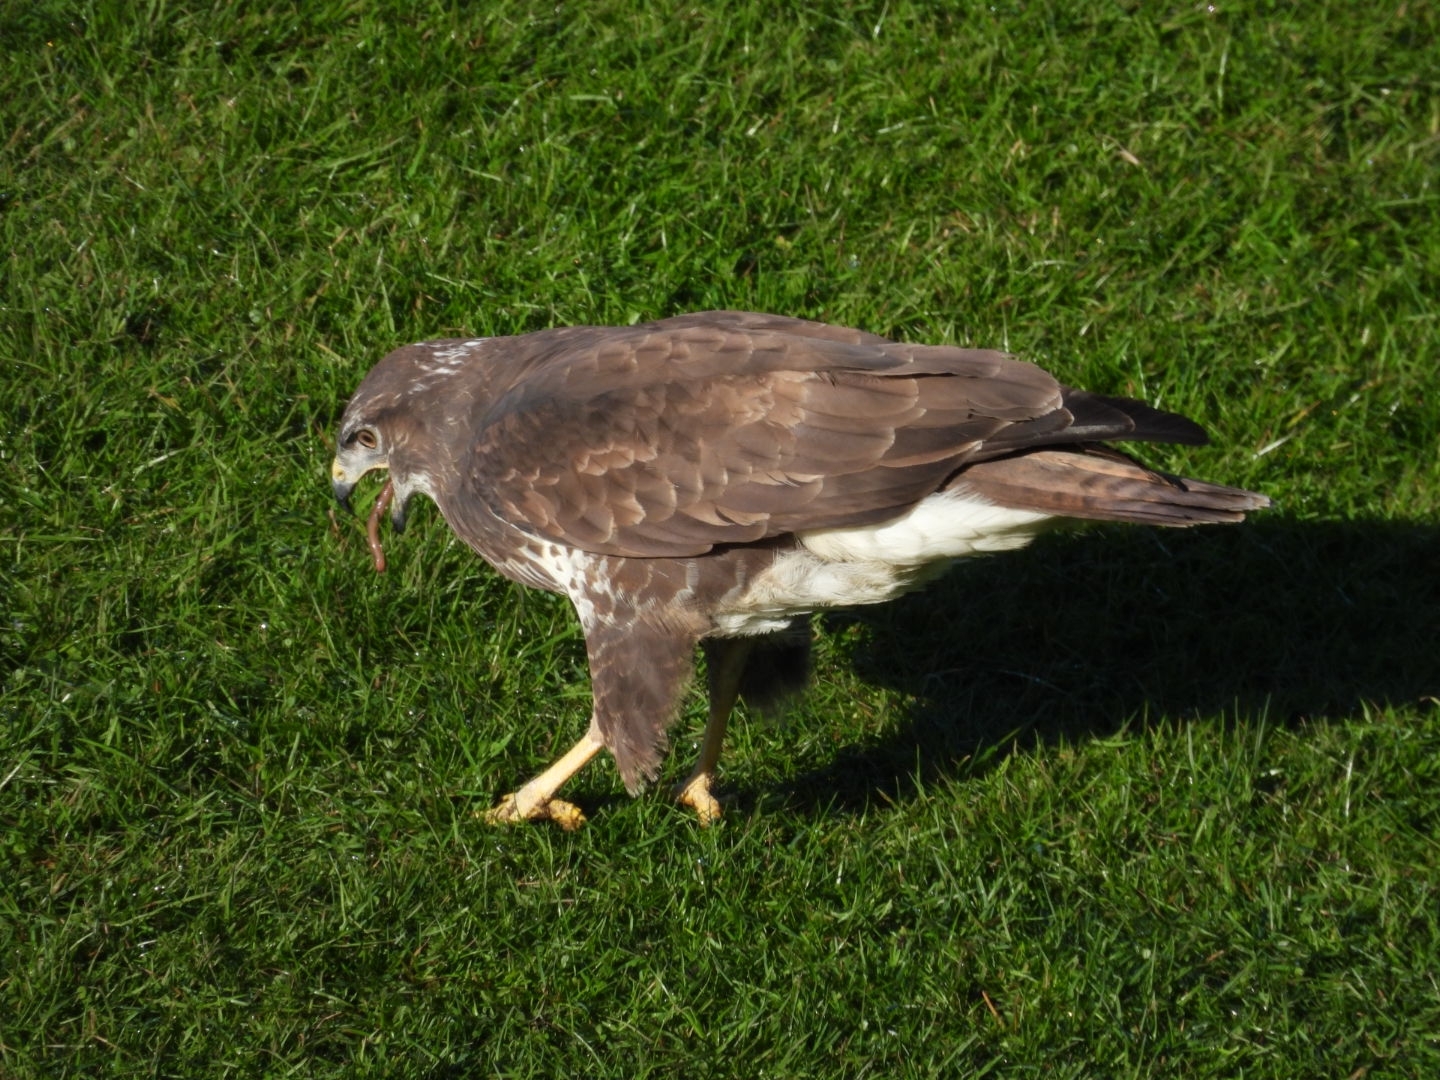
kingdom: Animalia
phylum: Chordata
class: Aves
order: Accipitriformes
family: Accipitridae
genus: Buteo
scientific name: Buteo buteo
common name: Common buzzard
